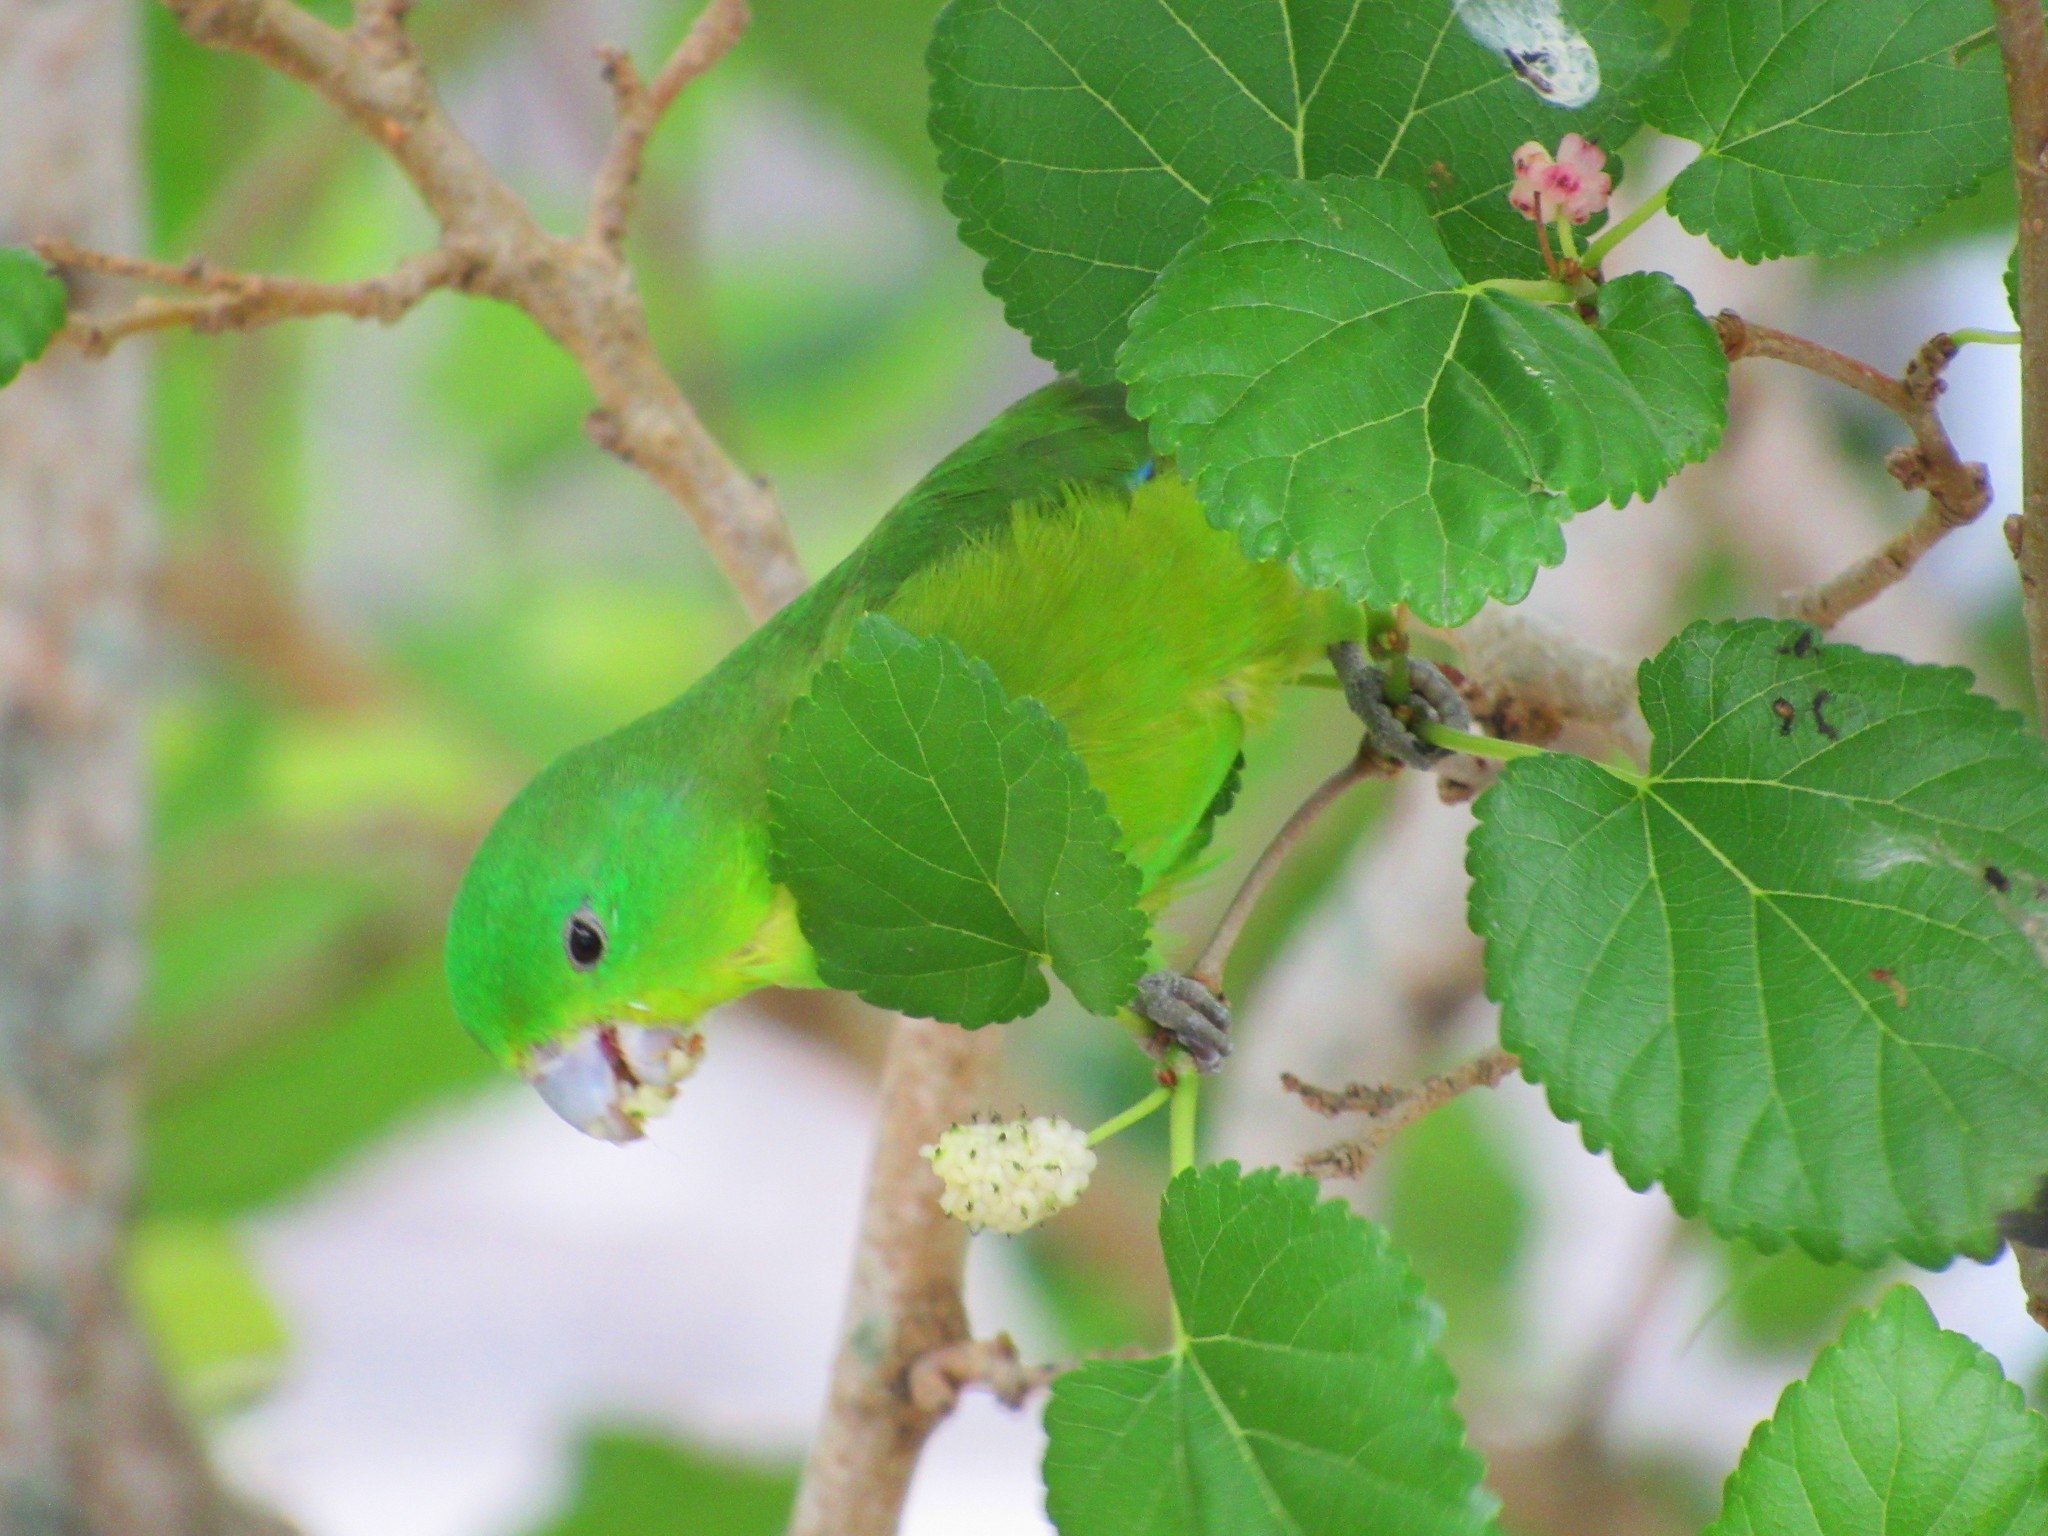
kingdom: Animalia
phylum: Chordata
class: Aves
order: Psittaciformes
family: Psittacidae
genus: Forpus
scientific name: Forpus xanthopterygius
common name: Blue-winged parrotlet
